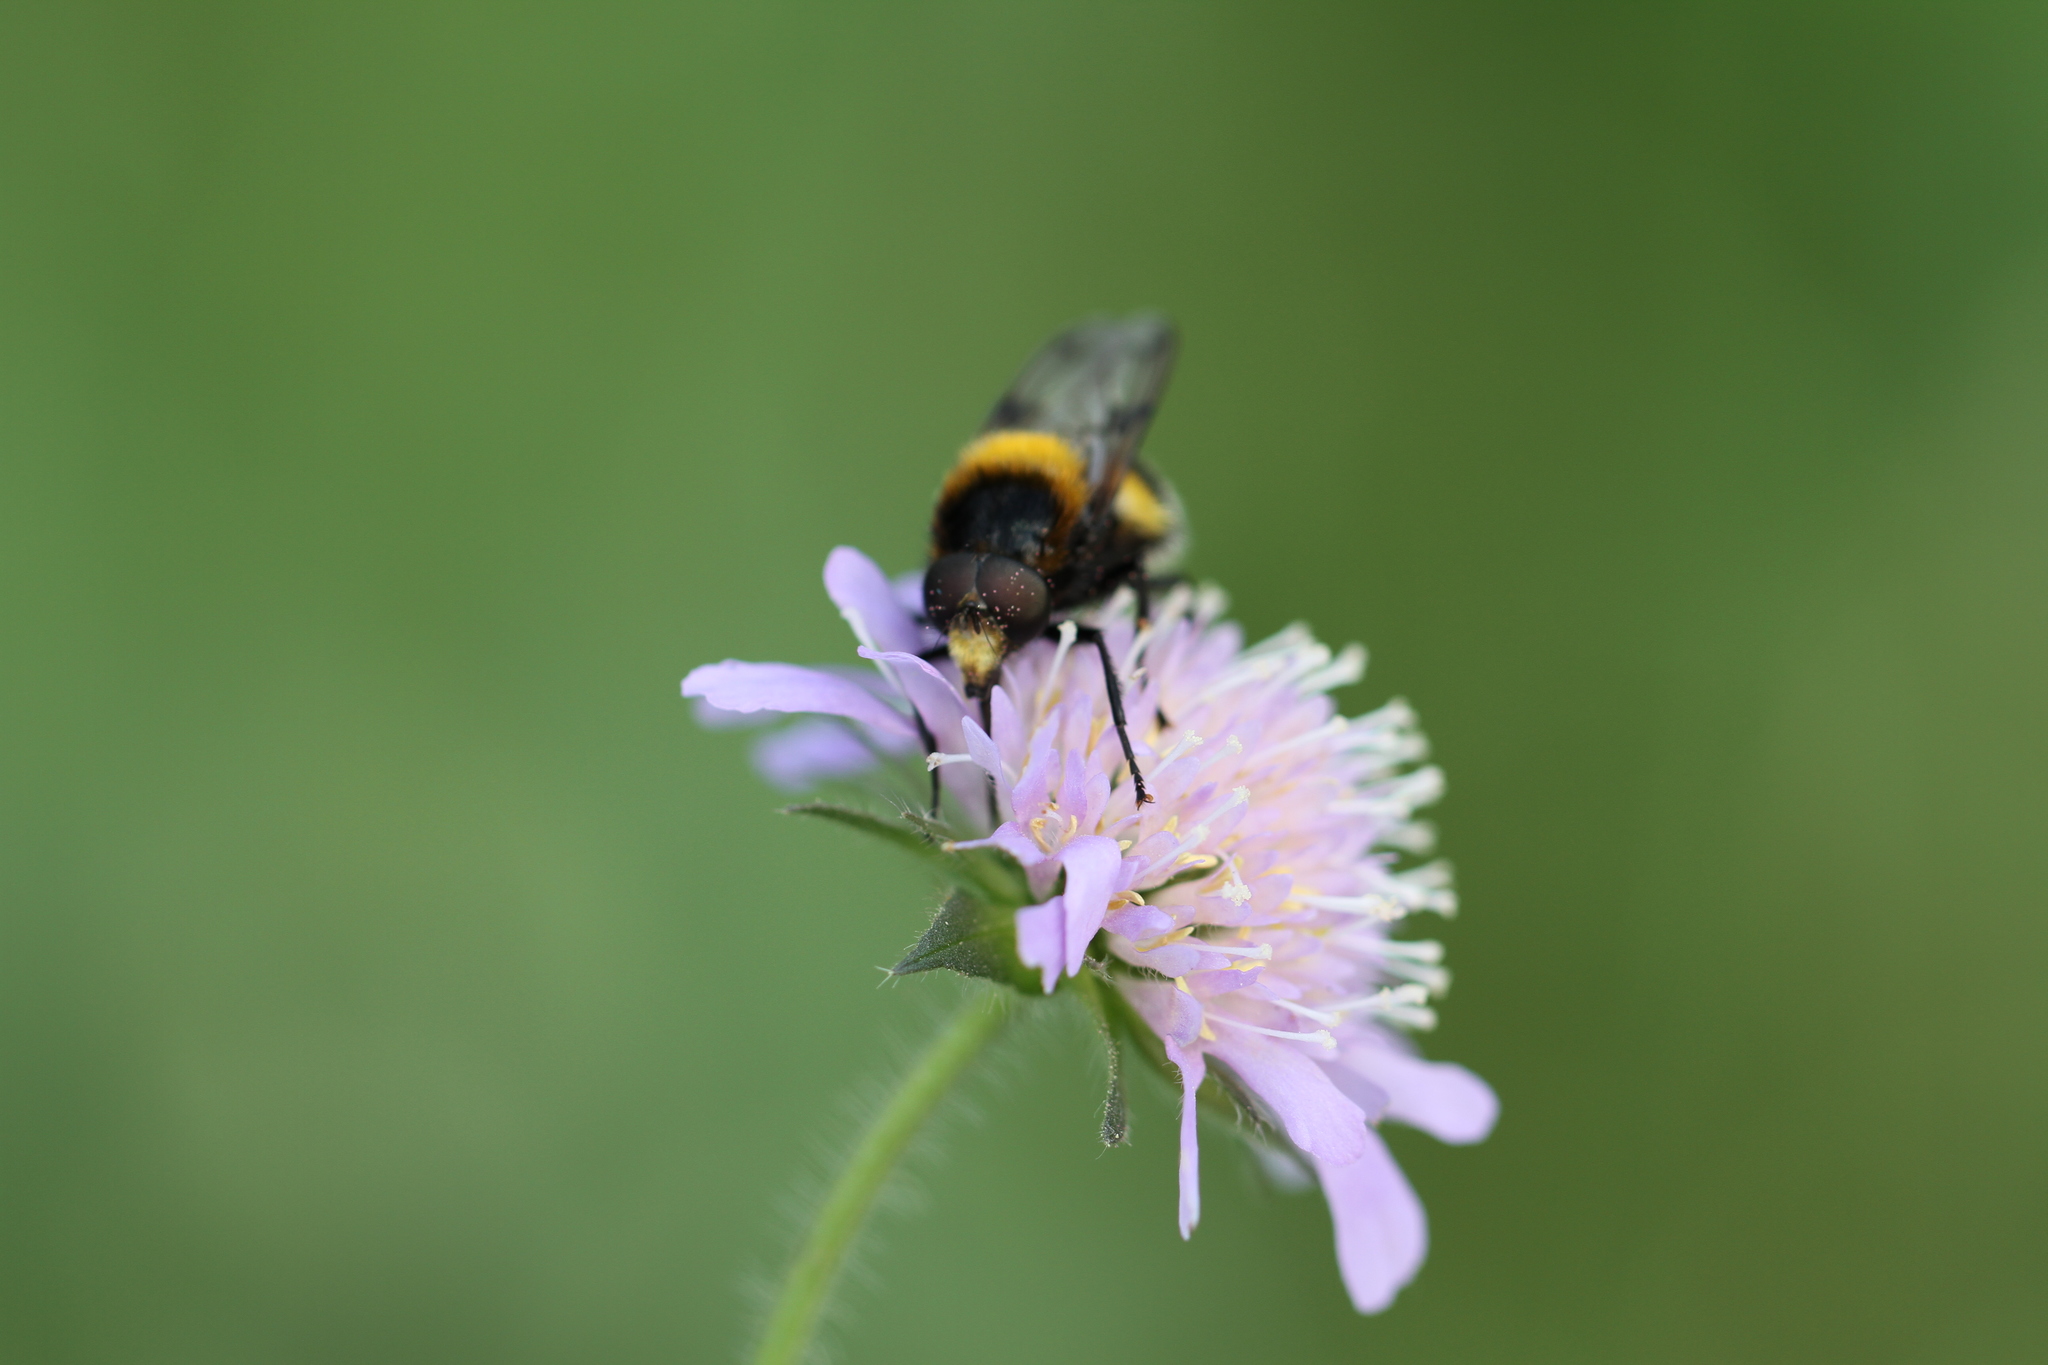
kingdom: Animalia
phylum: Arthropoda
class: Insecta
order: Diptera
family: Syrphidae
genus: Volucella
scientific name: Volucella bombylans
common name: Bumble bee hover fly
